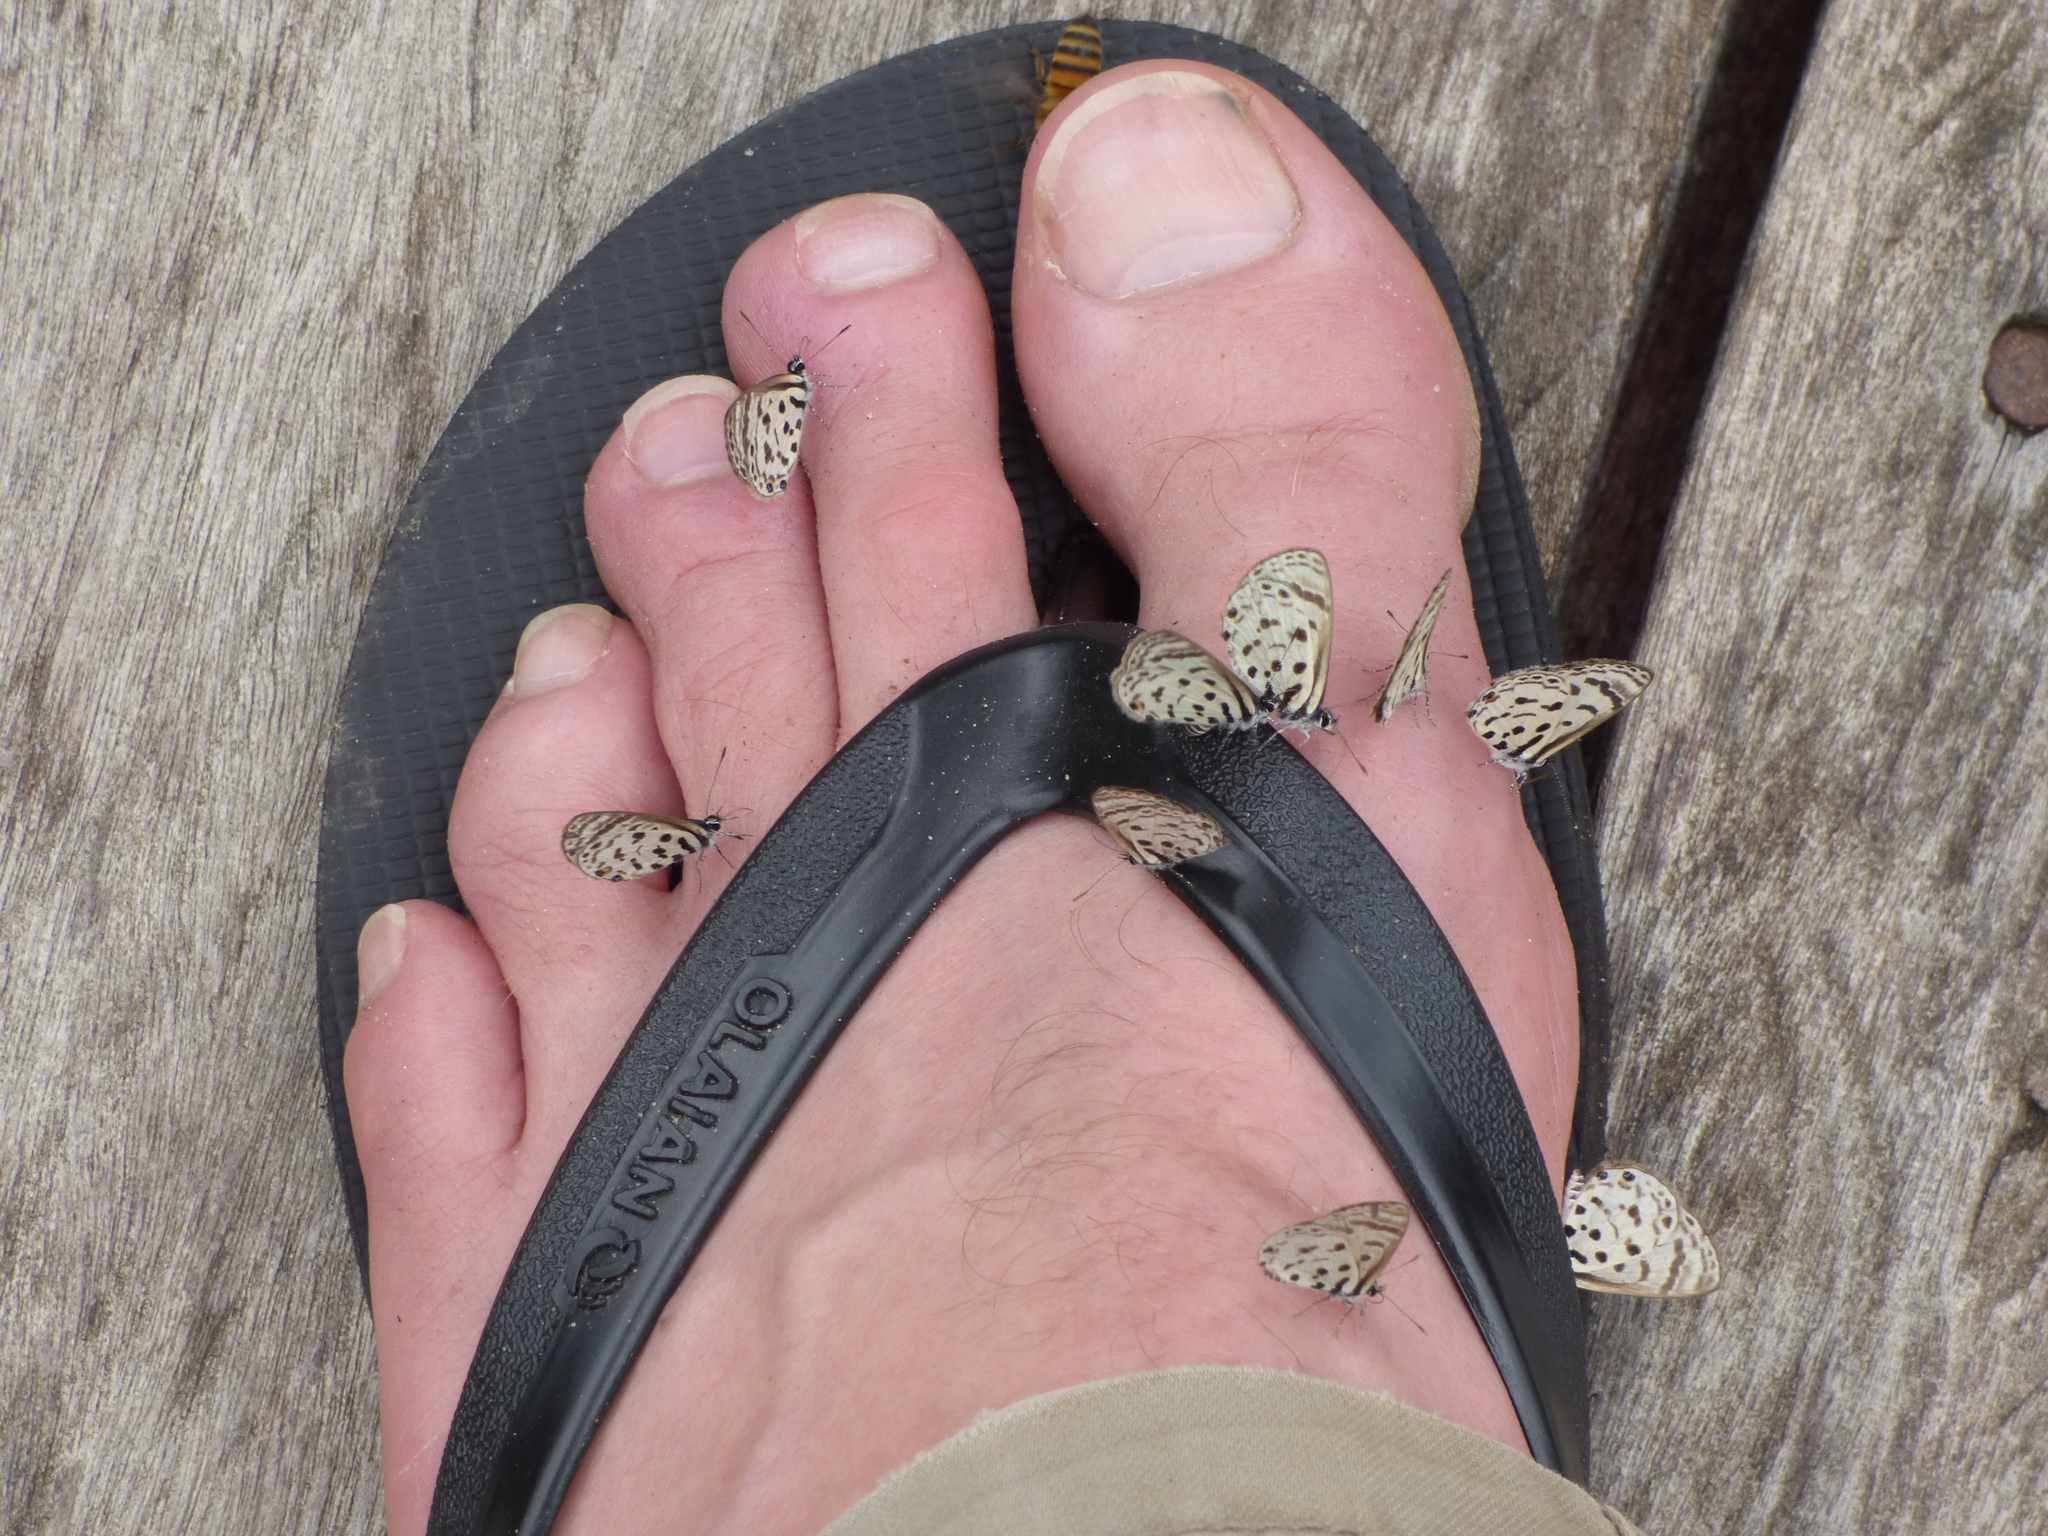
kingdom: Animalia
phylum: Arthropoda
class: Insecta
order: Lepidoptera
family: Lycaenidae
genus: Azanus
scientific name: Azanus mirza
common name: Mirza babul blue
